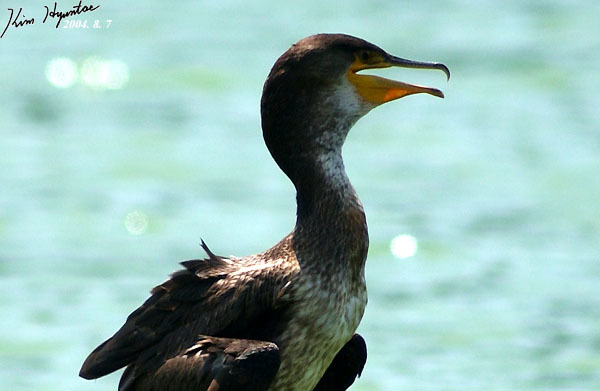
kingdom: Animalia
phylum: Chordata
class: Aves
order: Suliformes
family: Phalacrocoracidae
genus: Phalacrocorax
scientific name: Phalacrocorax capillatus
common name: Japanese cormorant
